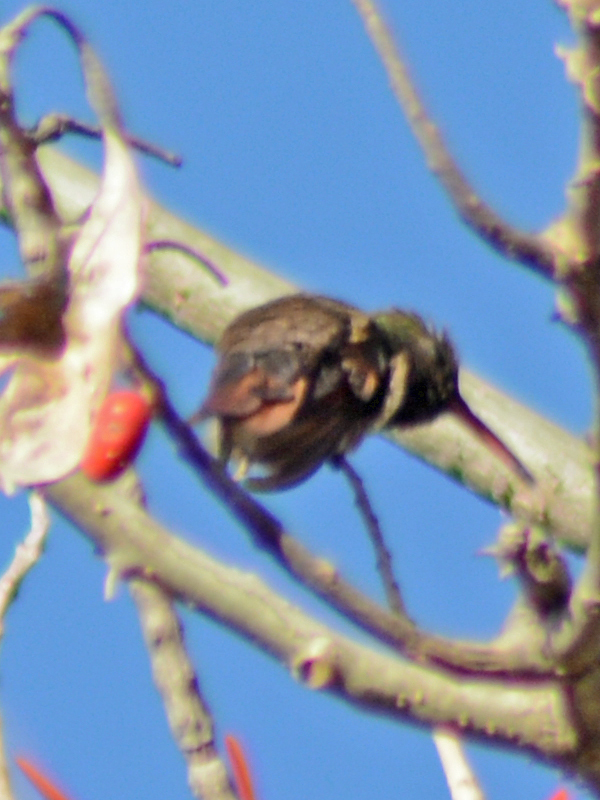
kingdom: Animalia
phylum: Chordata
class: Aves
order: Apodiformes
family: Trochilidae
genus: Saucerottia
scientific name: Saucerottia beryllina
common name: Berylline hummingbird
